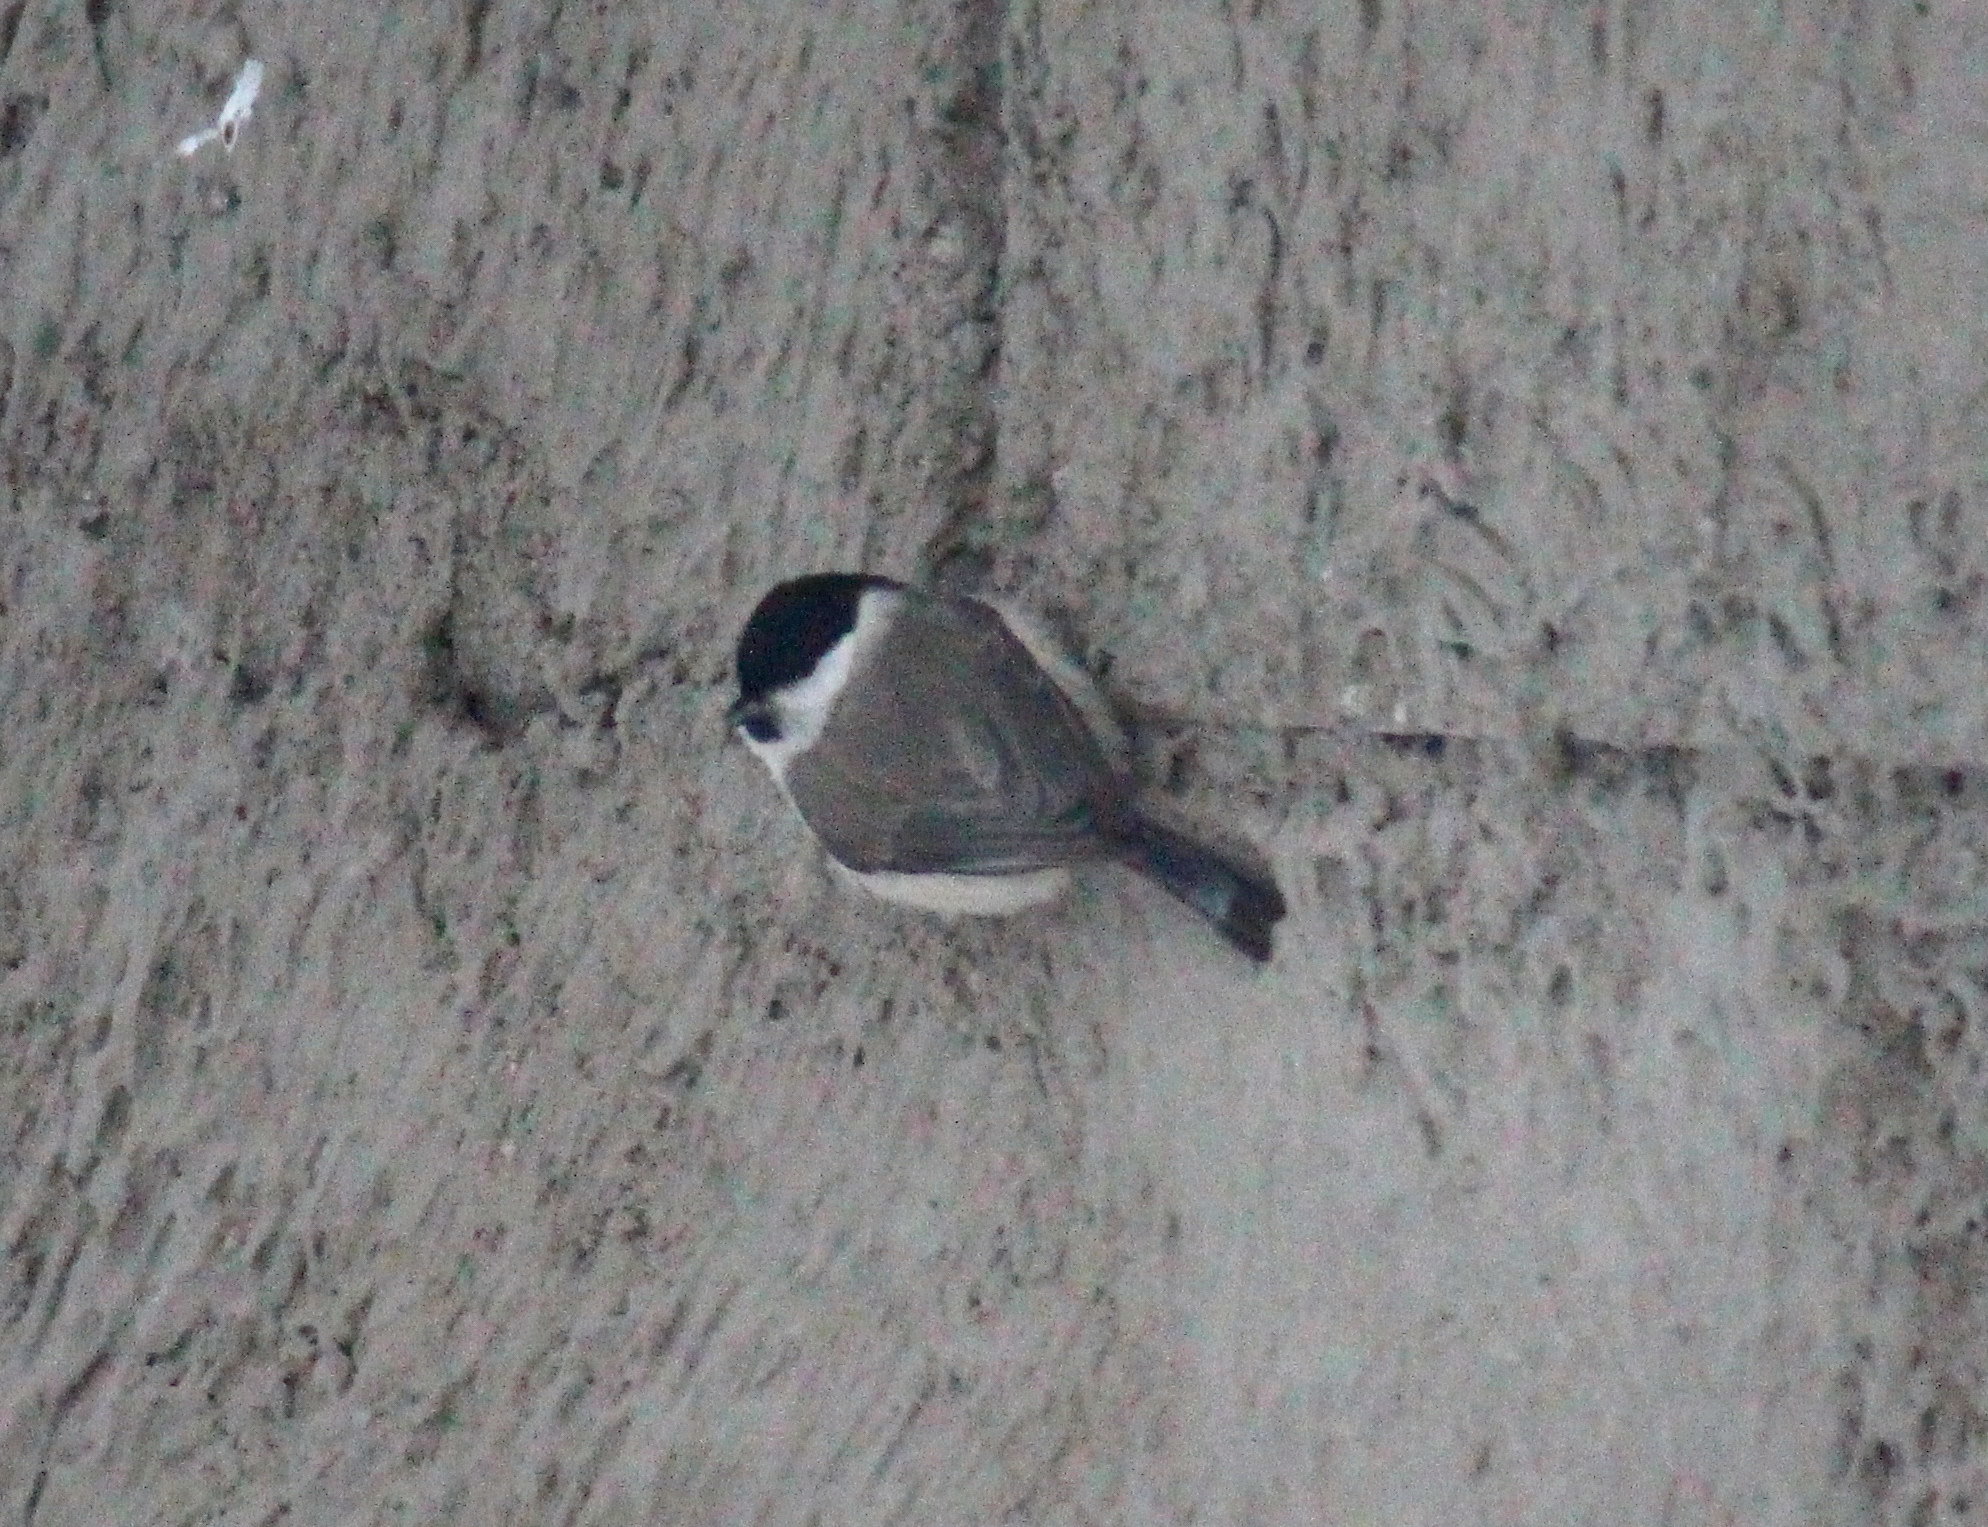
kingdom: Animalia
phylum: Chordata
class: Aves
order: Passeriformes
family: Paridae
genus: Poecile
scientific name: Poecile palustris
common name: Marsh tit
